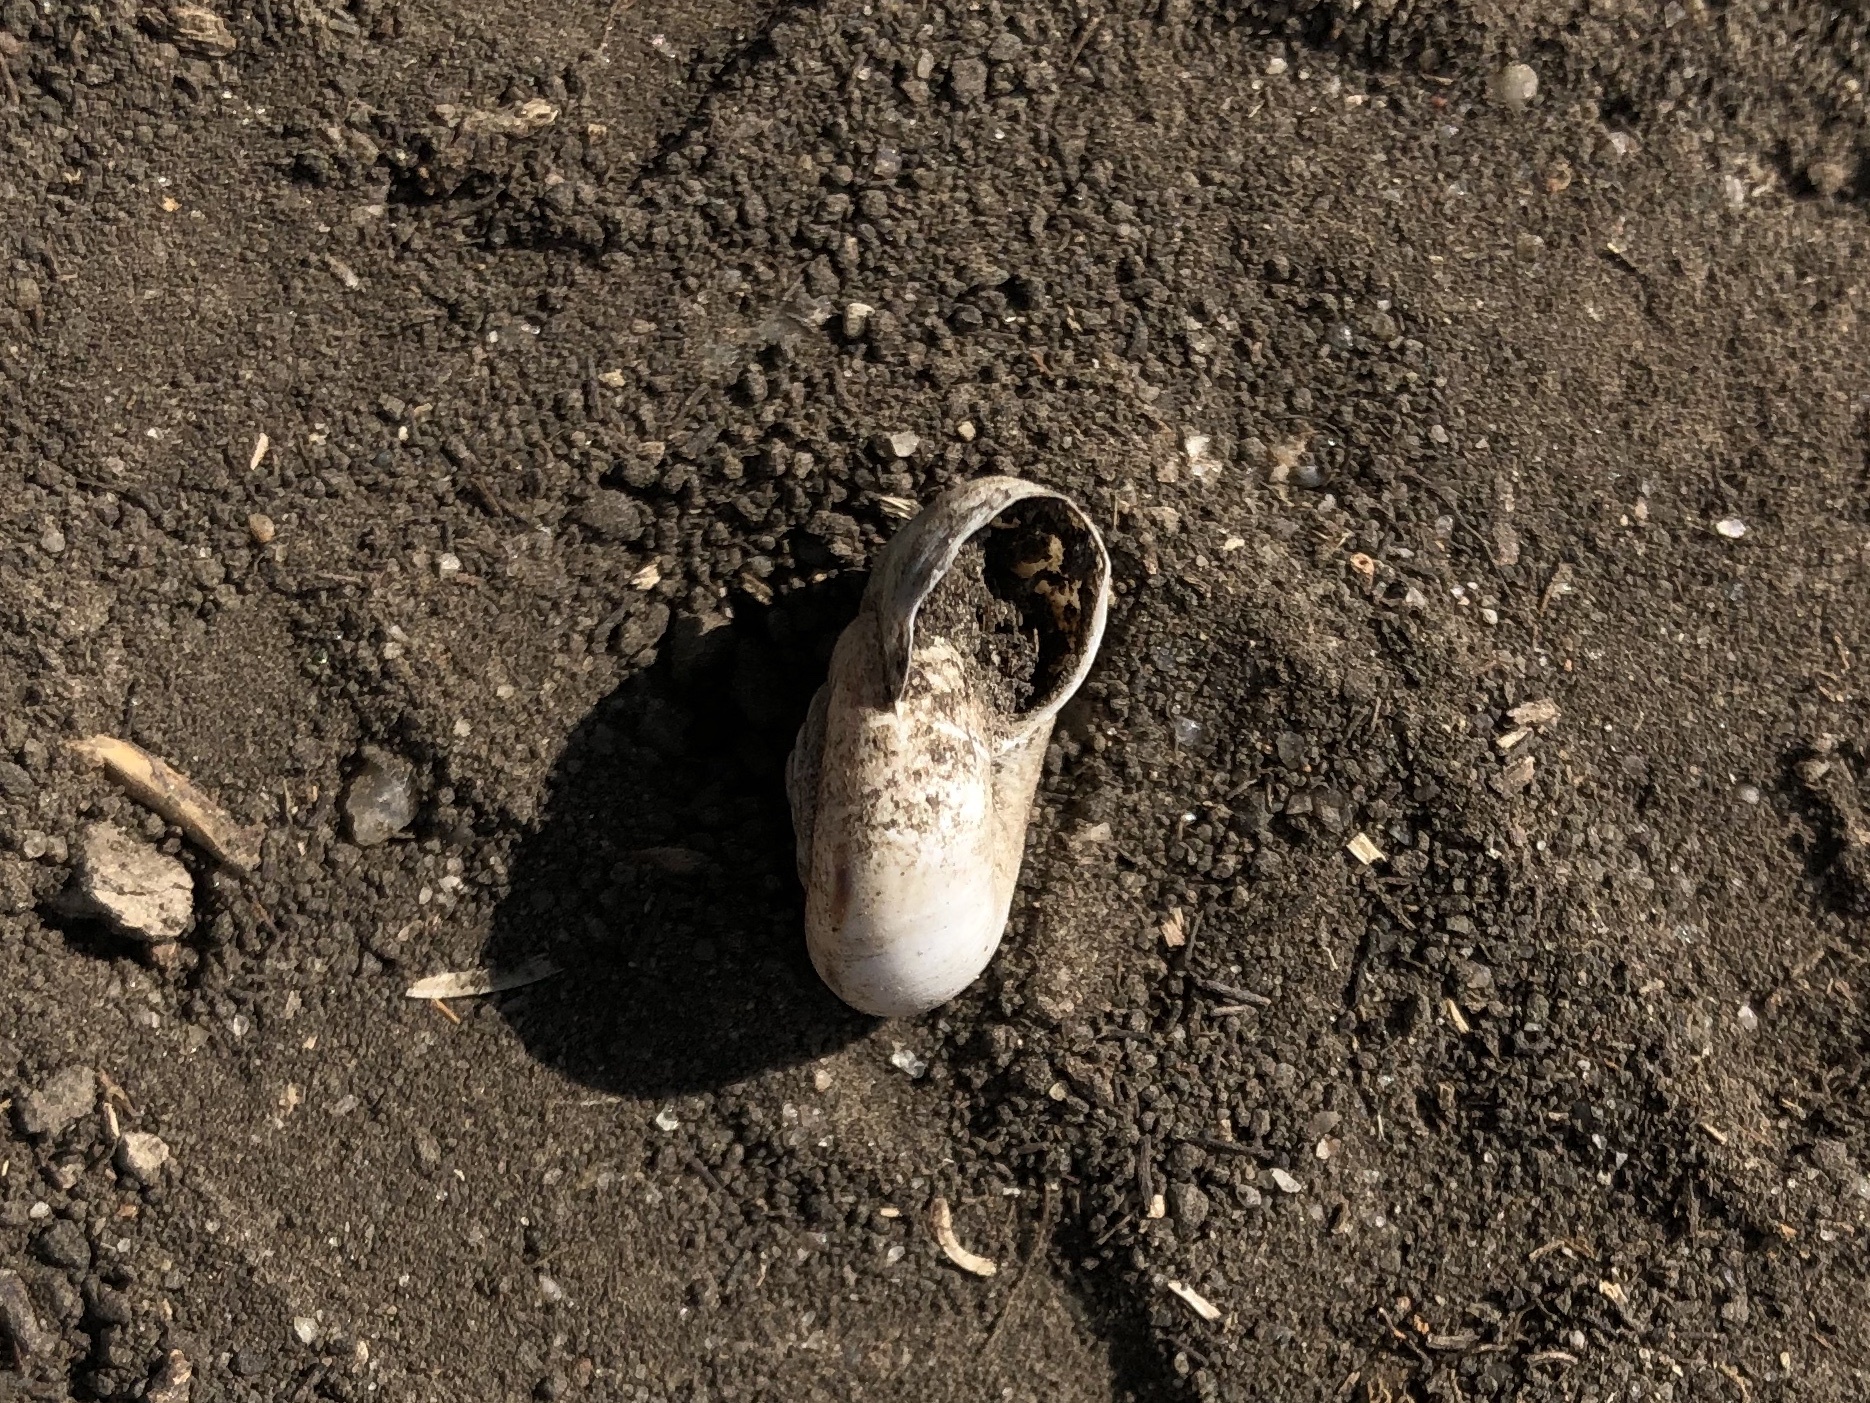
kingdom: Animalia
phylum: Mollusca
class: Gastropoda
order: Stylommatophora
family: Geomitridae
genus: Xerolenta
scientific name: Xerolenta obvia
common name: White heath snail
